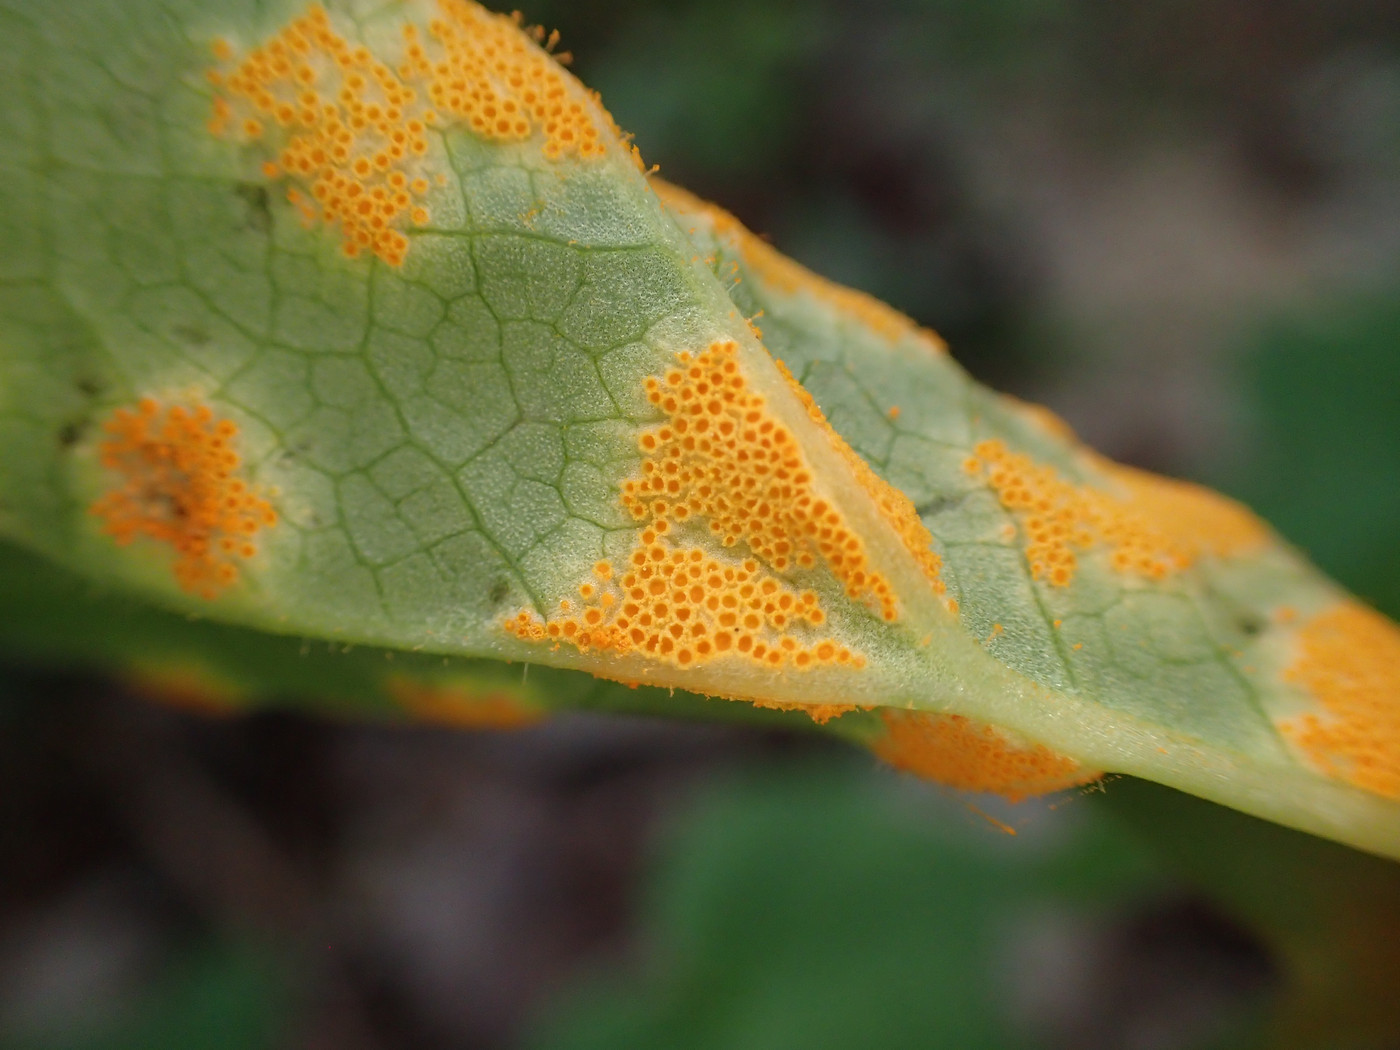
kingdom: Fungi
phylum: Basidiomycota
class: Pucciniomycetes
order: Pucciniales
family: Pucciniaceae
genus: Puccinia
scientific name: Puccinia podophylli
